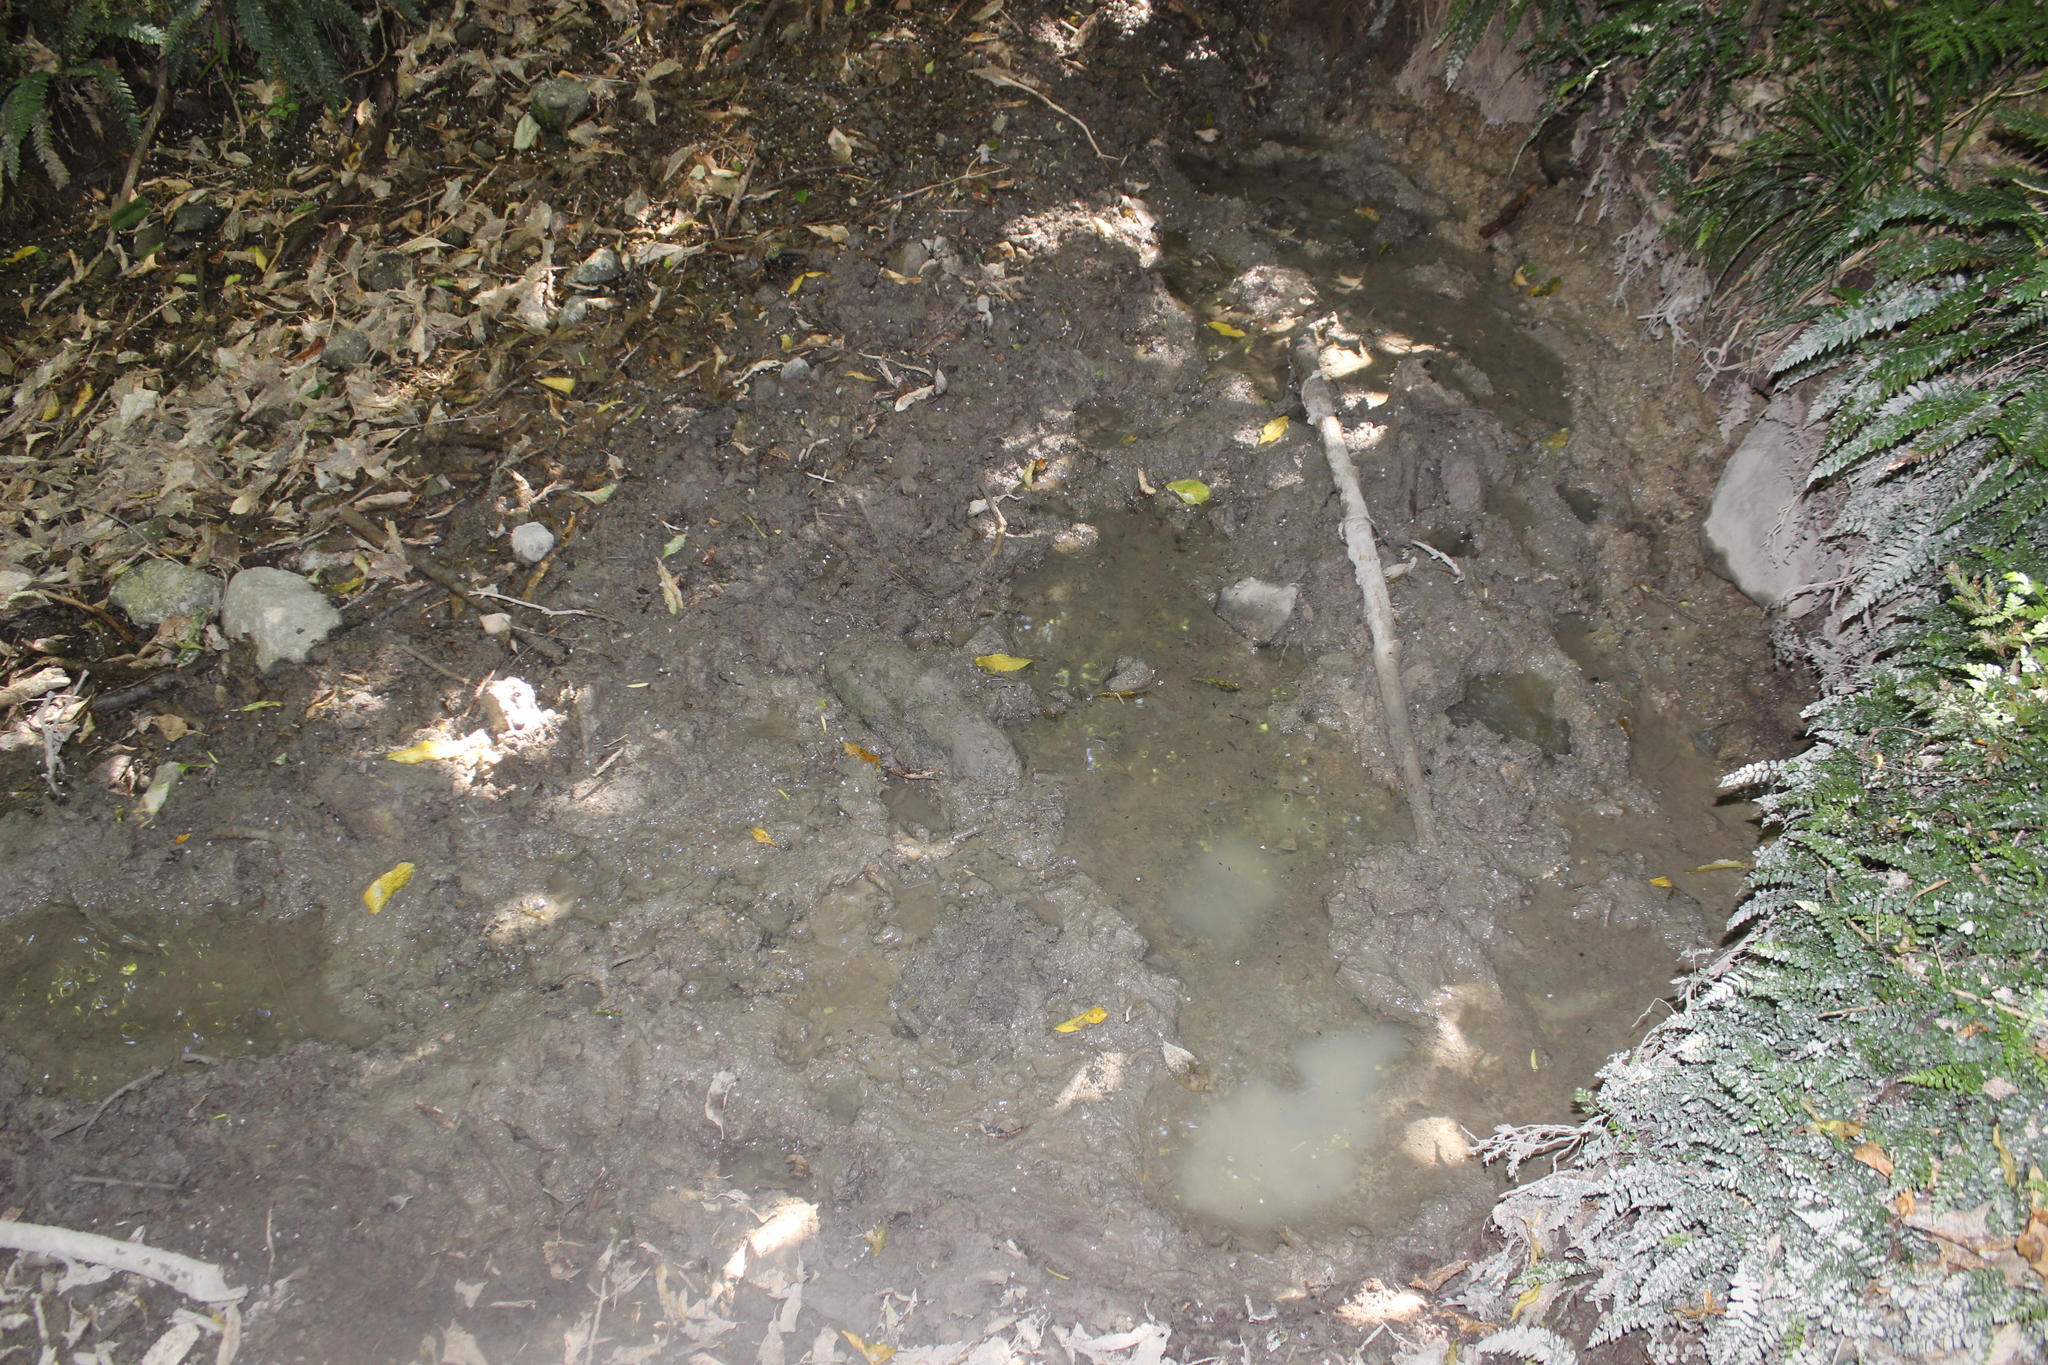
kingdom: Animalia
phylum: Chordata
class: Mammalia
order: Artiodactyla
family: Suidae
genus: Sus
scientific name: Sus scrofa
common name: Wild boar
